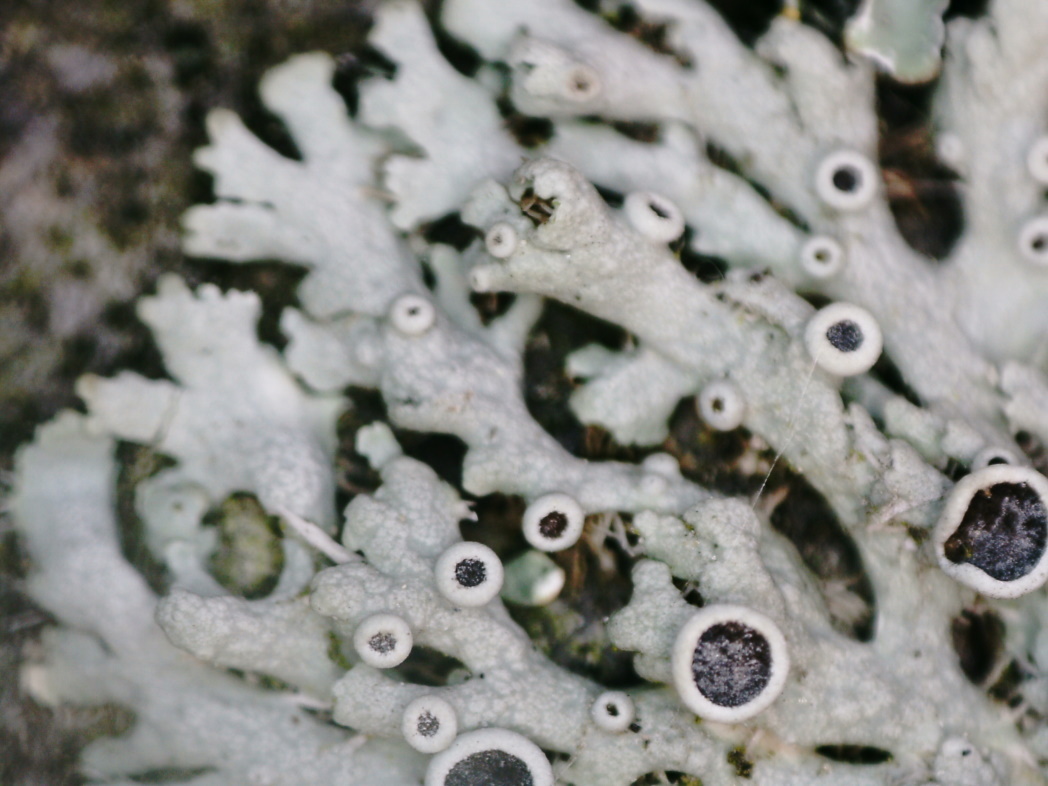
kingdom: Fungi
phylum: Ascomycota
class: Lecanoromycetes
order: Caliciales
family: Physciaceae
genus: Physcia
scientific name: Physcia stellaris
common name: Star rosette lichen
